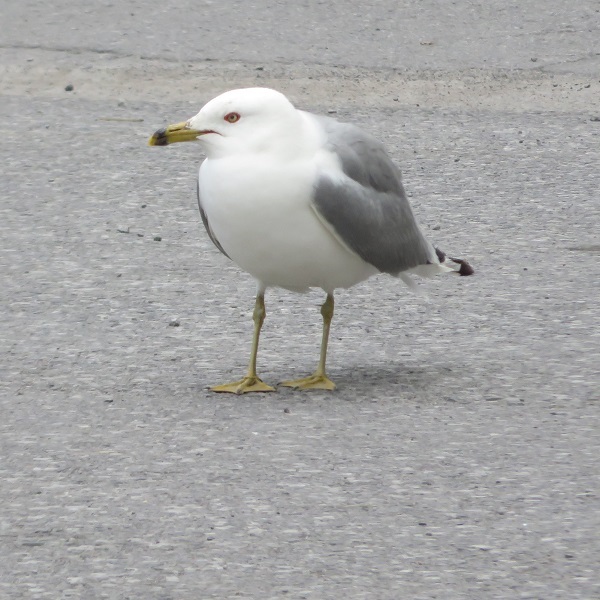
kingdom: Animalia
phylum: Chordata
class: Aves
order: Charadriiformes
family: Laridae
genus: Larus
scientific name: Larus delawarensis
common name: Ring-billed gull
